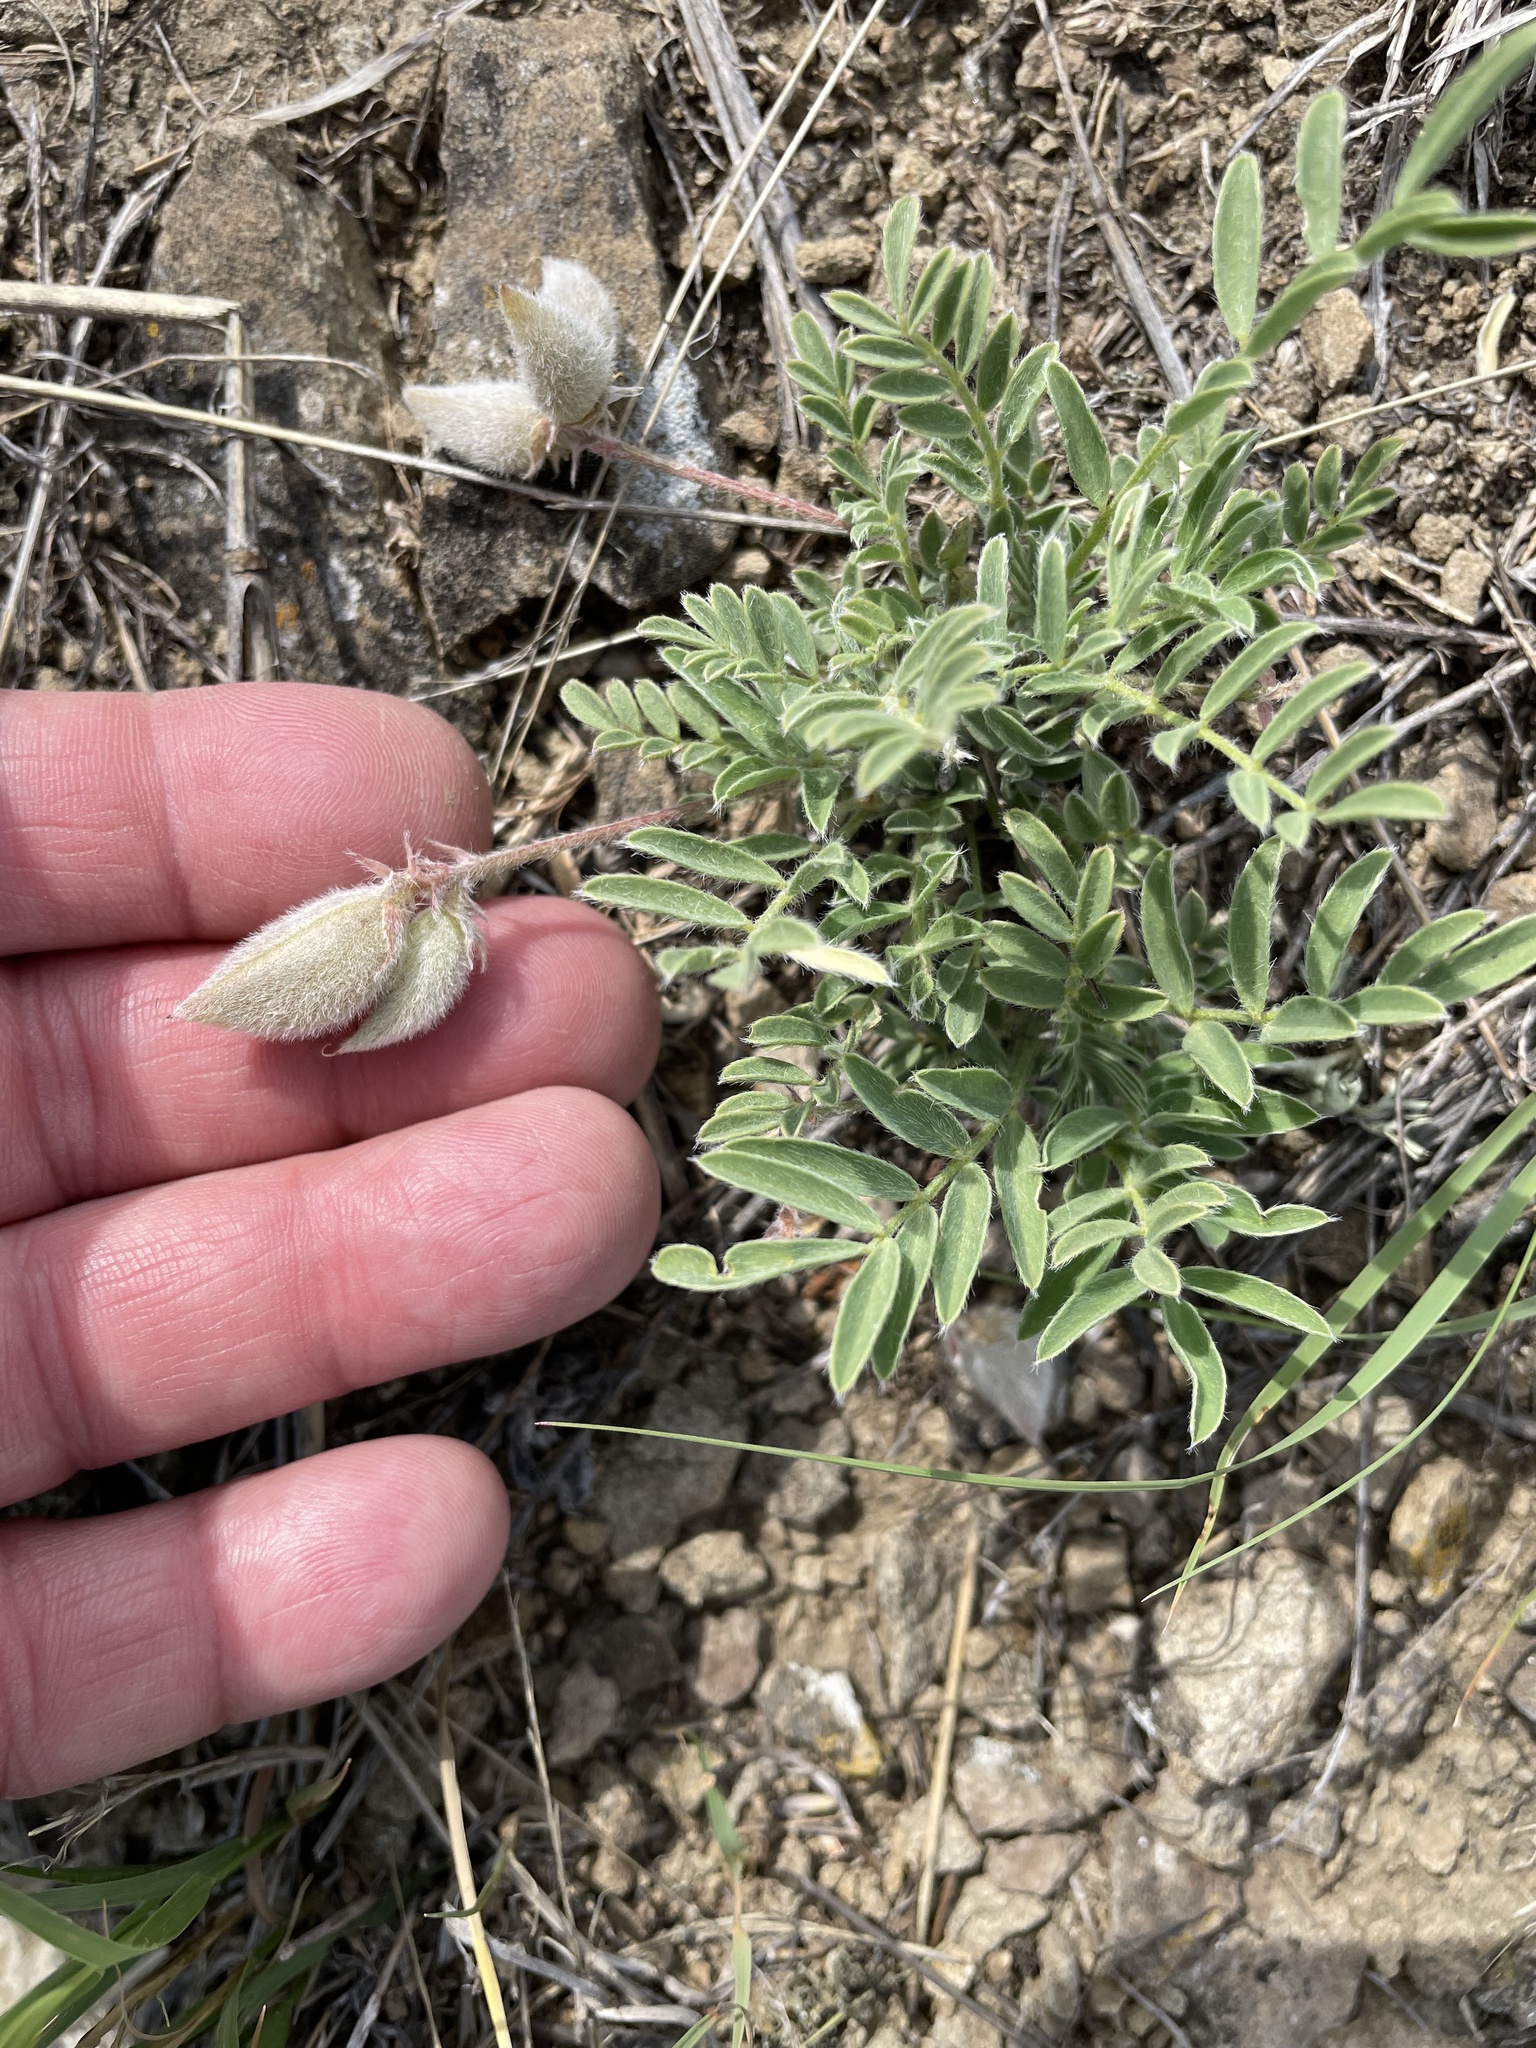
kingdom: Plantae
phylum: Tracheophyta
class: Magnoliopsida
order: Fabales
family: Fabaceae
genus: Astragalus
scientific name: Astragalus lotiflorus
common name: Lotus milk-vetch
